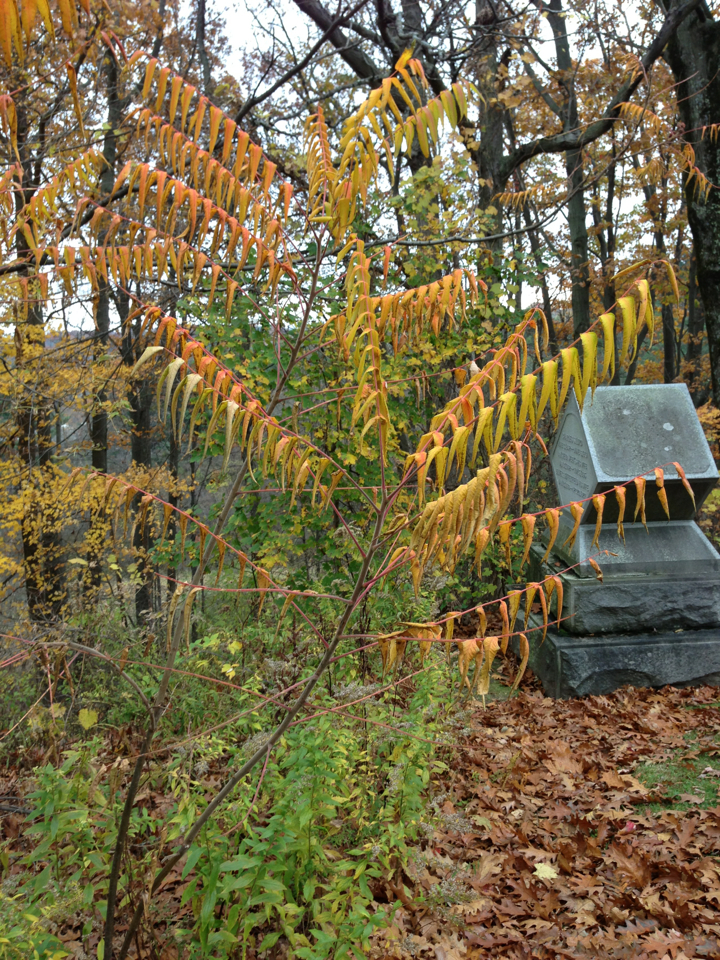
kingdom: Plantae
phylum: Tracheophyta
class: Magnoliopsida
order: Sapindales
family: Anacardiaceae
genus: Rhus
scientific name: Rhus typhina
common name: Staghorn sumac
